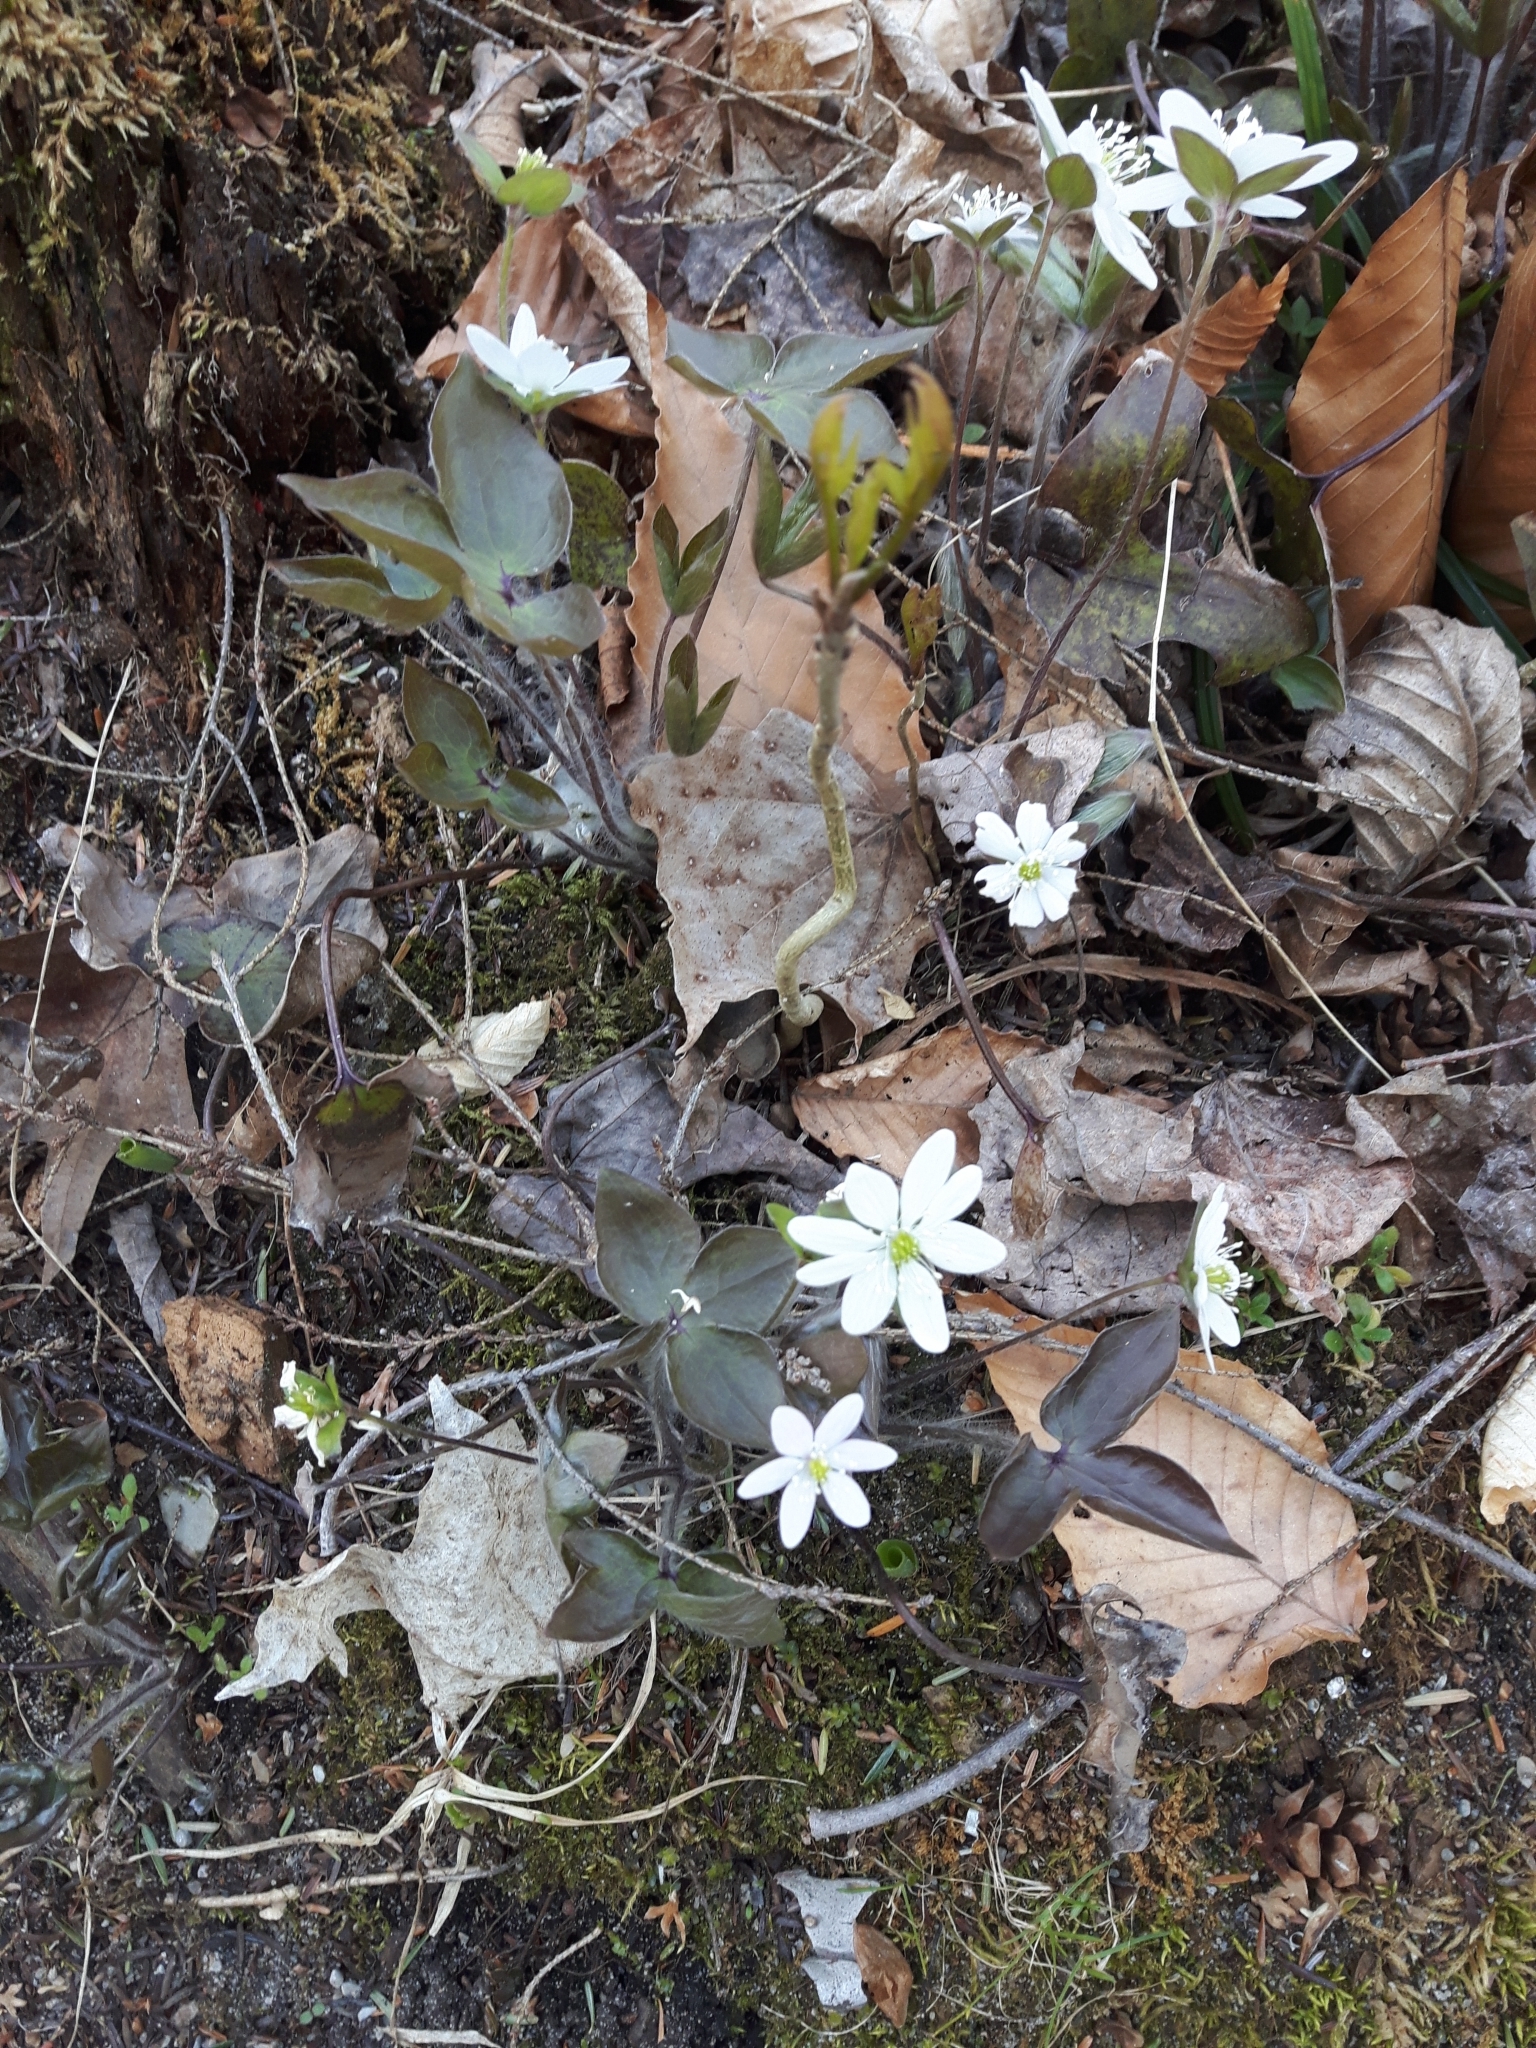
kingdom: Plantae
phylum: Tracheophyta
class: Magnoliopsida
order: Ranunculales
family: Ranunculaceae
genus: Hepatica
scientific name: Hepatica acutiloba
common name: Sharp-lobed hepatica
